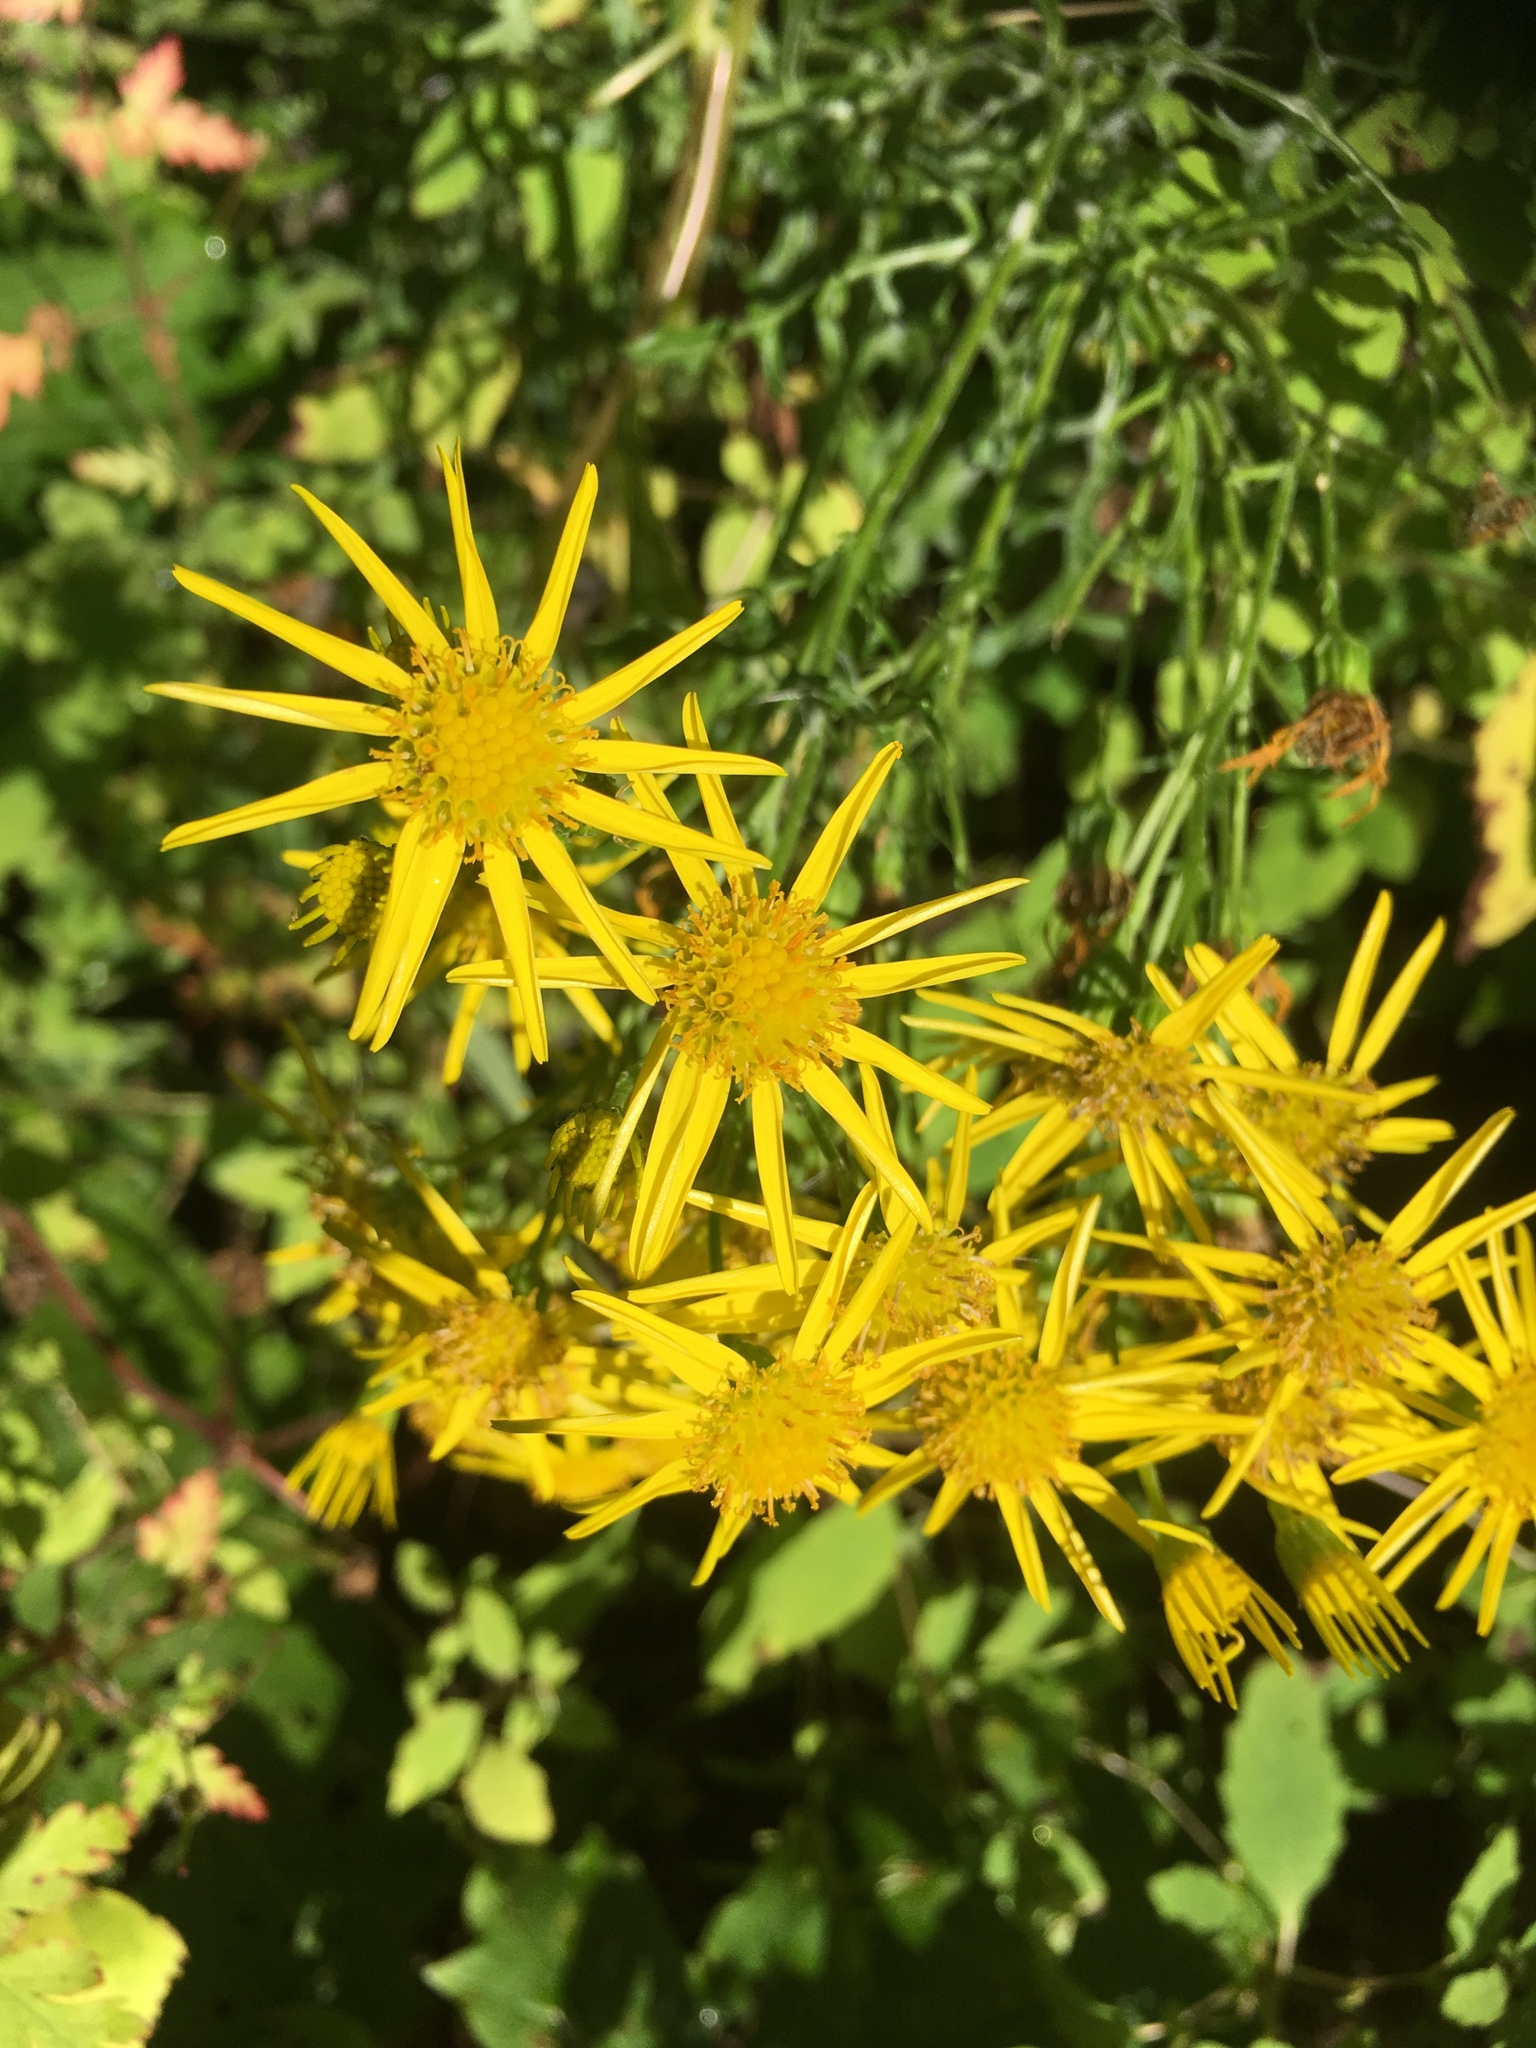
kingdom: Plantae
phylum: Tracheophyta
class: Magnoliopsida
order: Asterales
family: Asteraceae
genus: Jacobaea
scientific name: Jacobaea vulgaris
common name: Stinking willie
